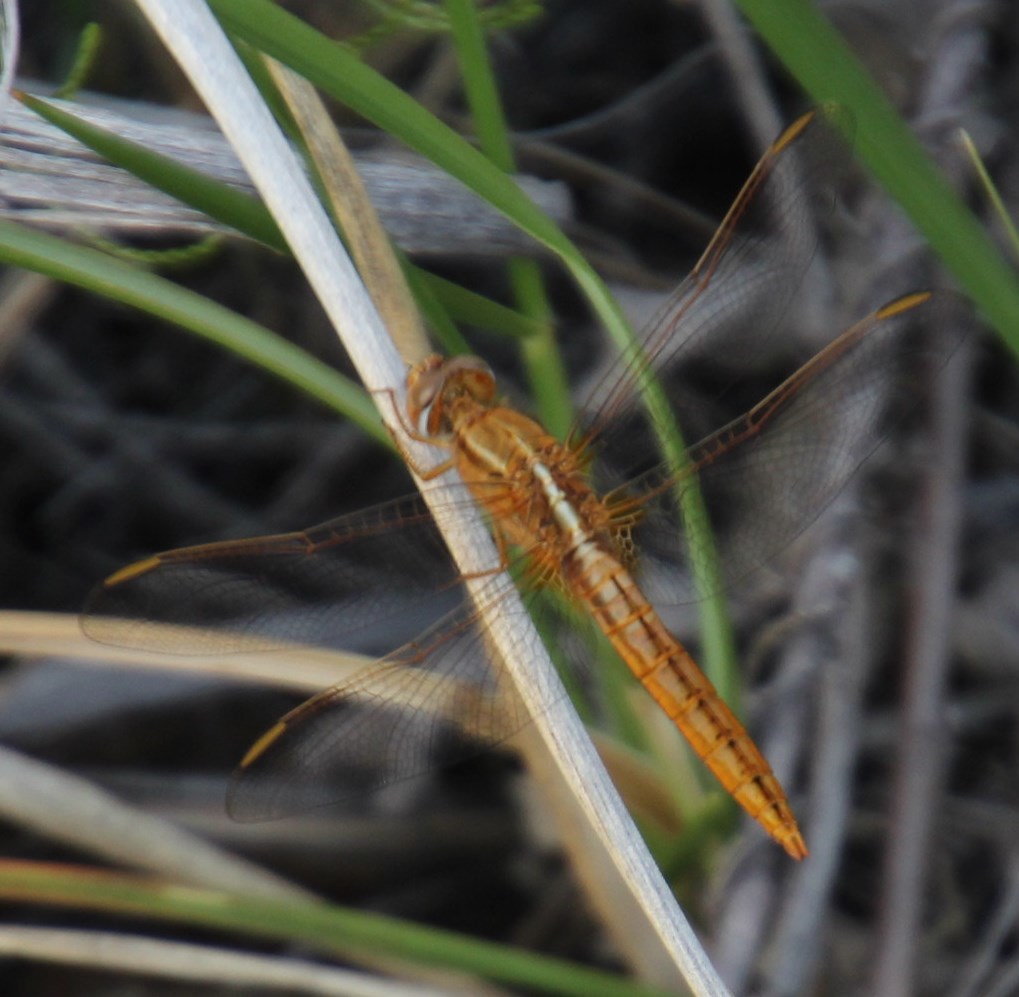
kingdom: Animalia
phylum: Arthropoda
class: Insecta
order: Odonata
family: Libellulidae
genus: Crocothemis
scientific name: Crocothemis erythraea
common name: Scarlet dragonfly
